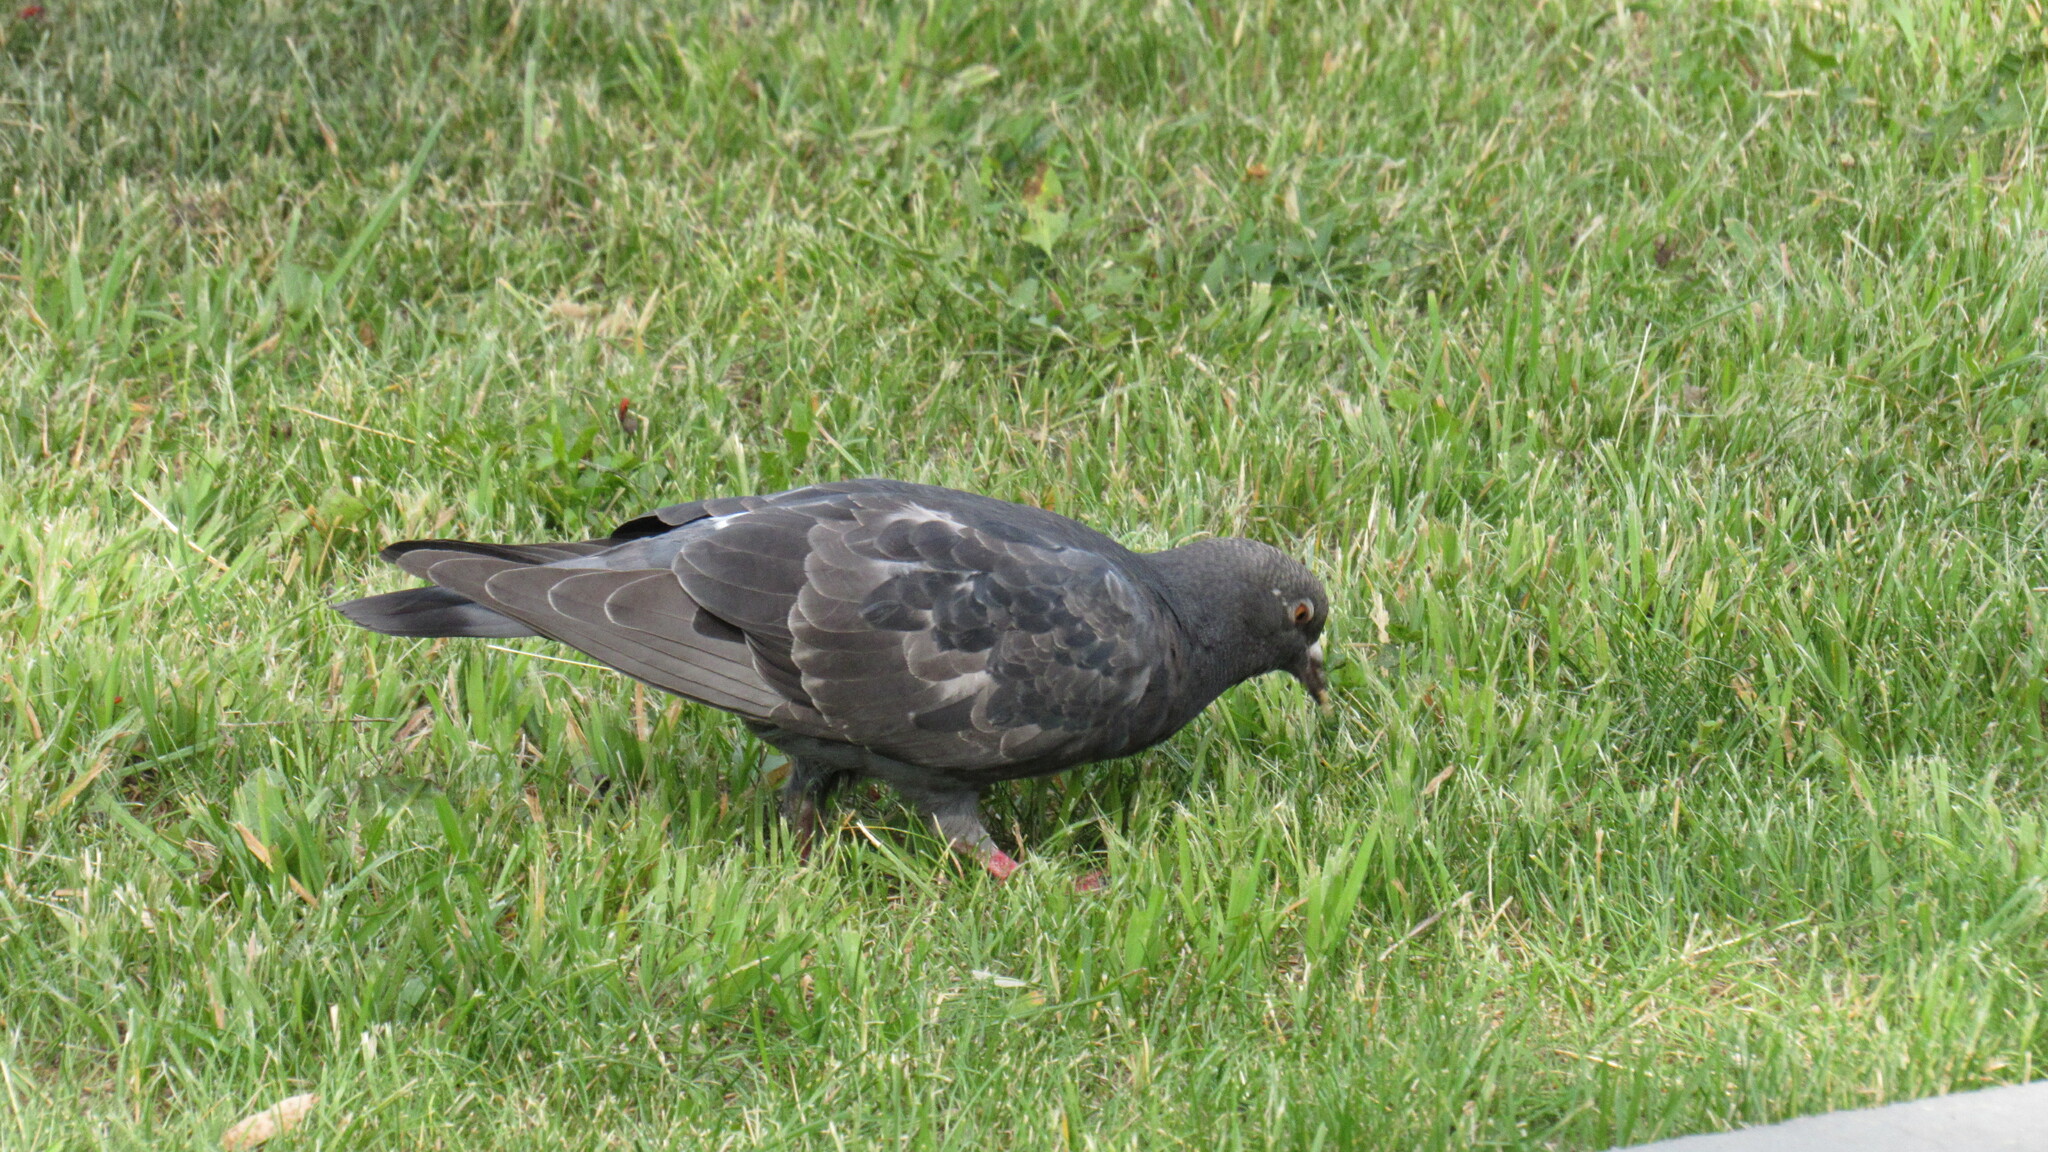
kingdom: Animalia
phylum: Chordata
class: Aves
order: Columbiformes
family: Columbidae
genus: Columba
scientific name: Columba livia
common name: Rock pigeon
